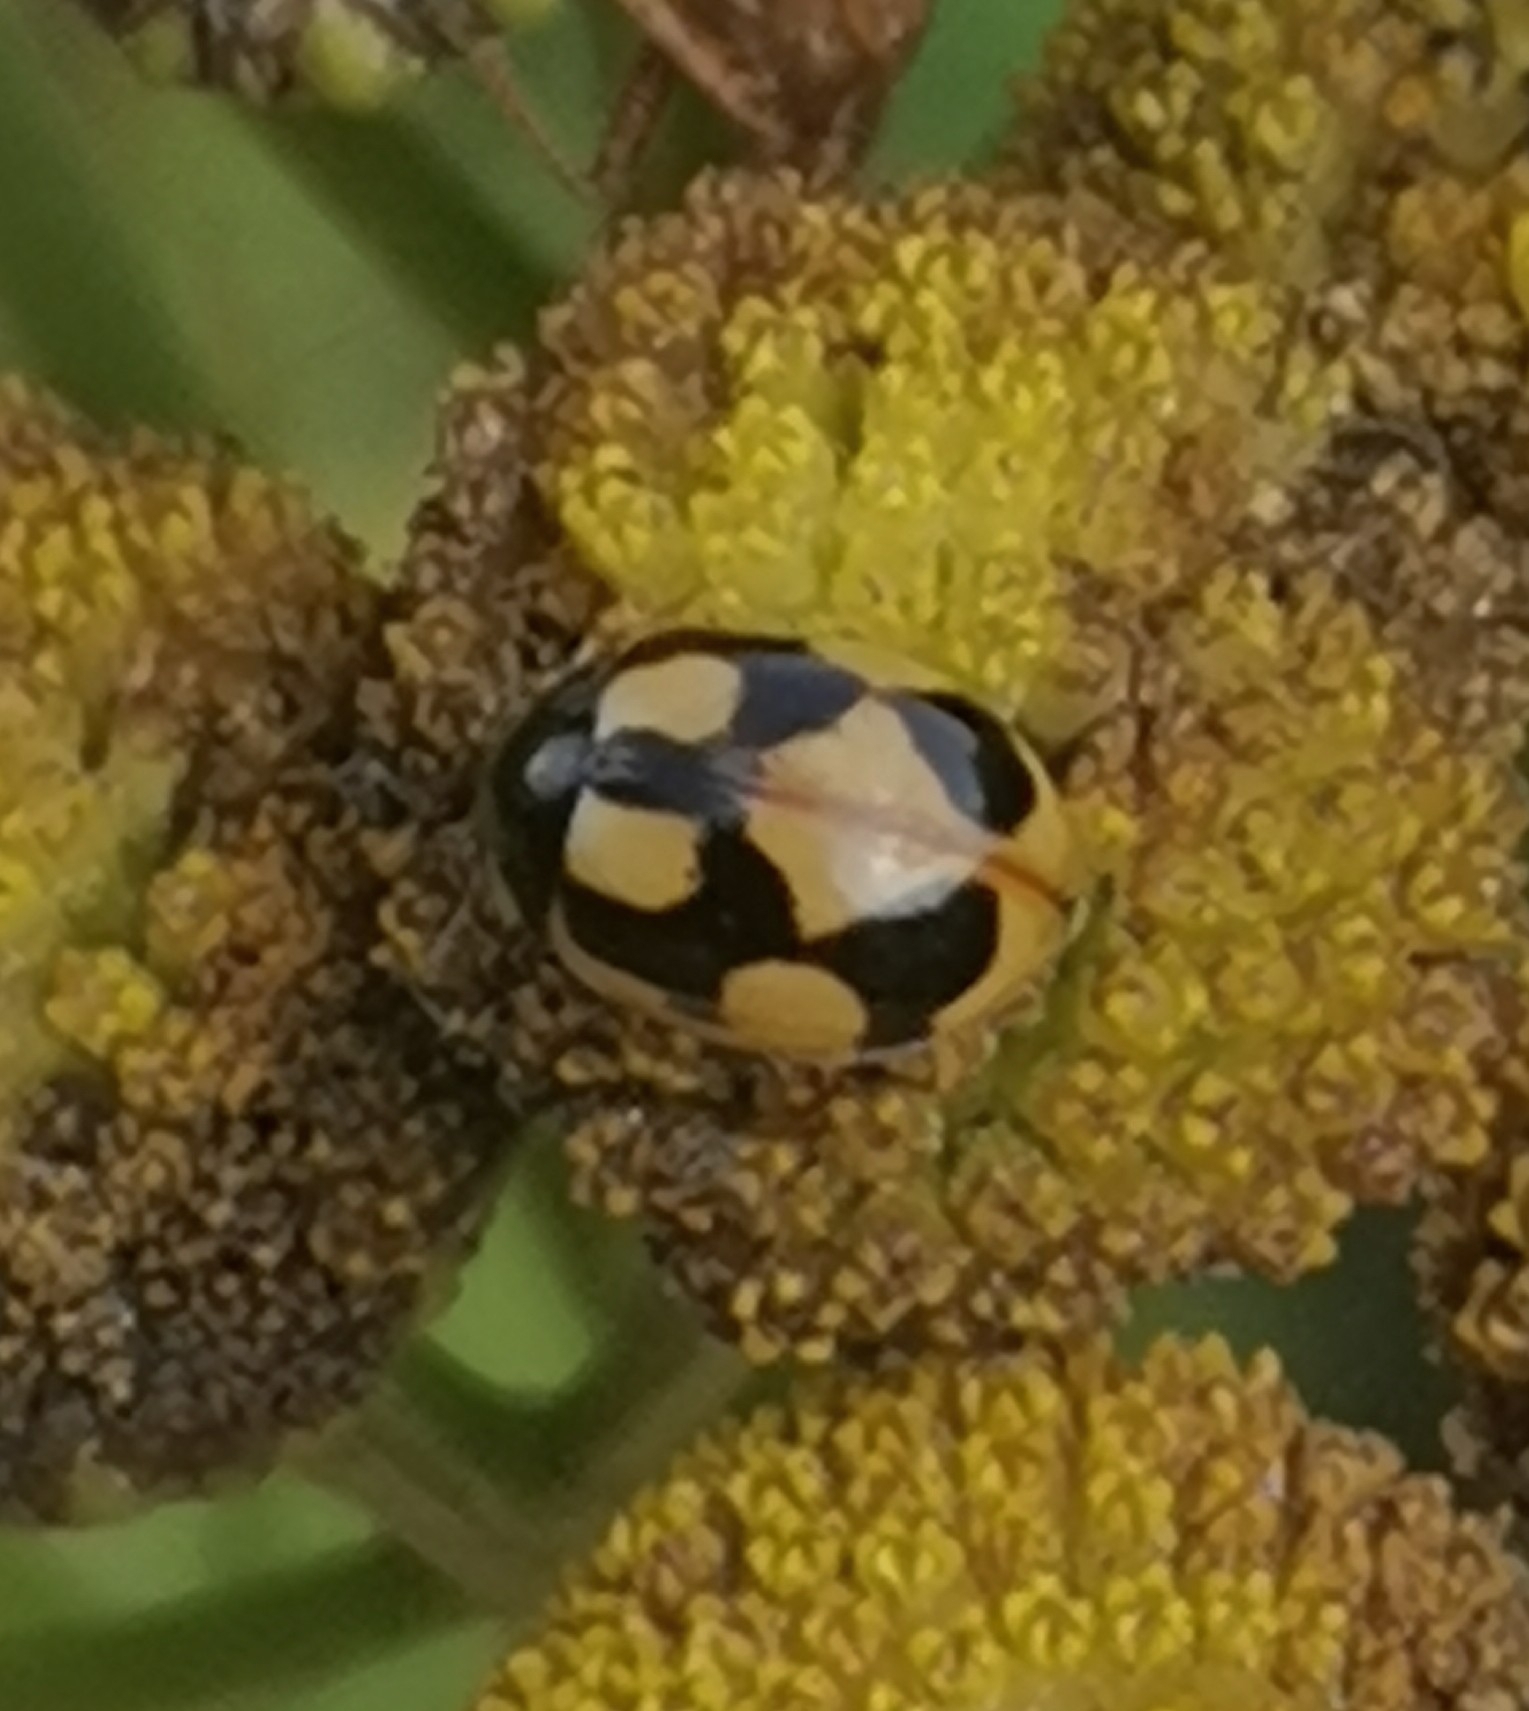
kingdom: Animalia
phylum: Arthropoda
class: Insecta
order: Coleoptera
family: Coccinellidae
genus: Coccinella
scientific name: Coccinella hieroglyphica
